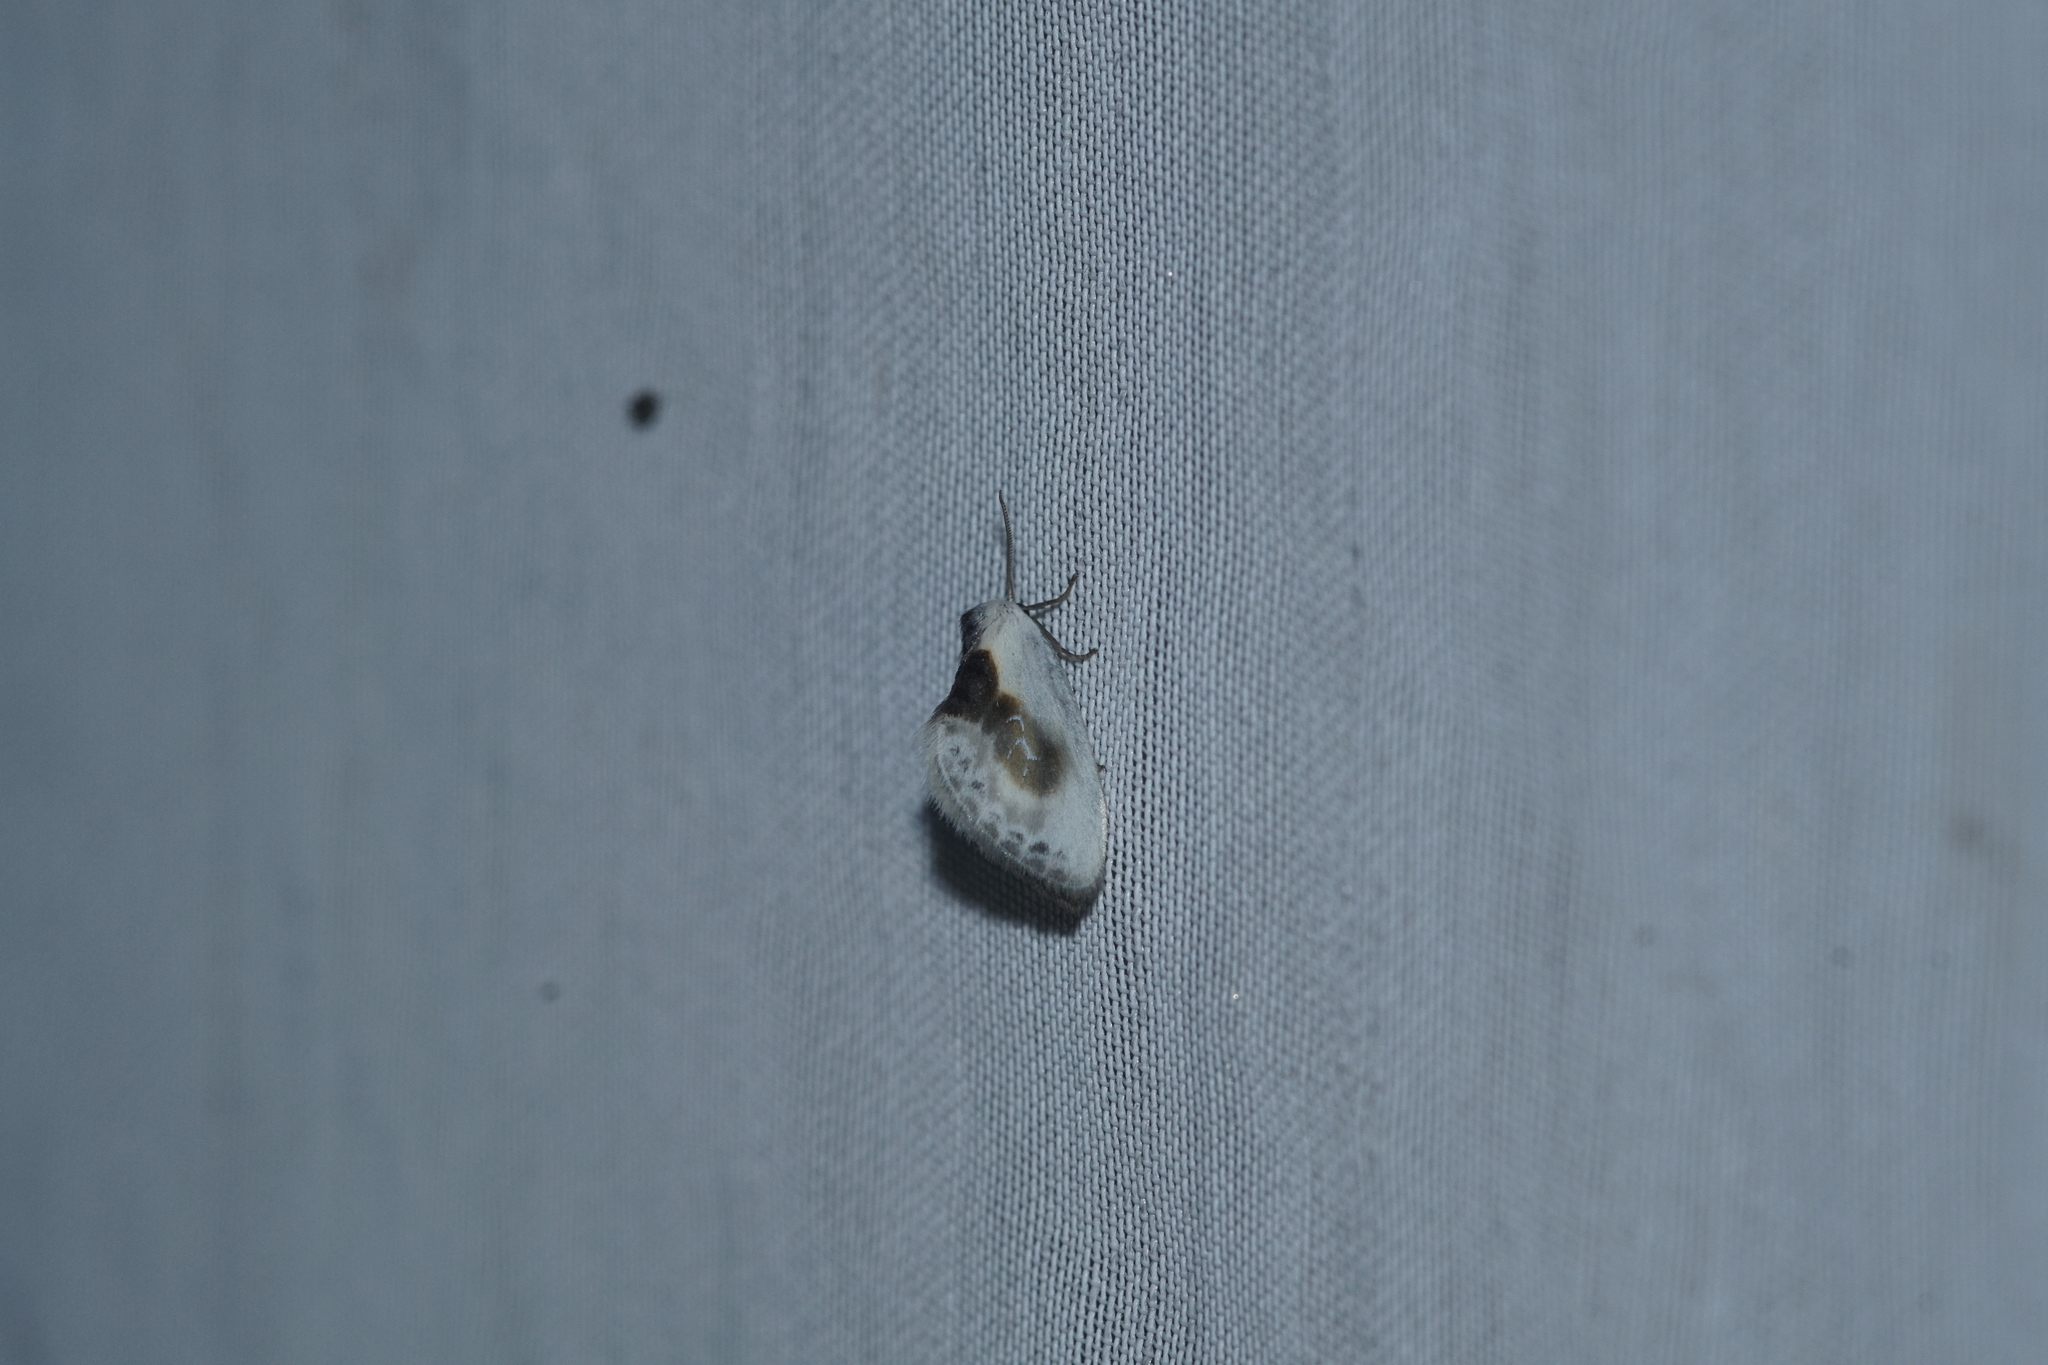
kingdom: Animalia
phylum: Arthropoda
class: Insecta
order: Lepidoptera
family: Drepanidae
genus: Cilix
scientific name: Cilix glaucata
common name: Chinese character
